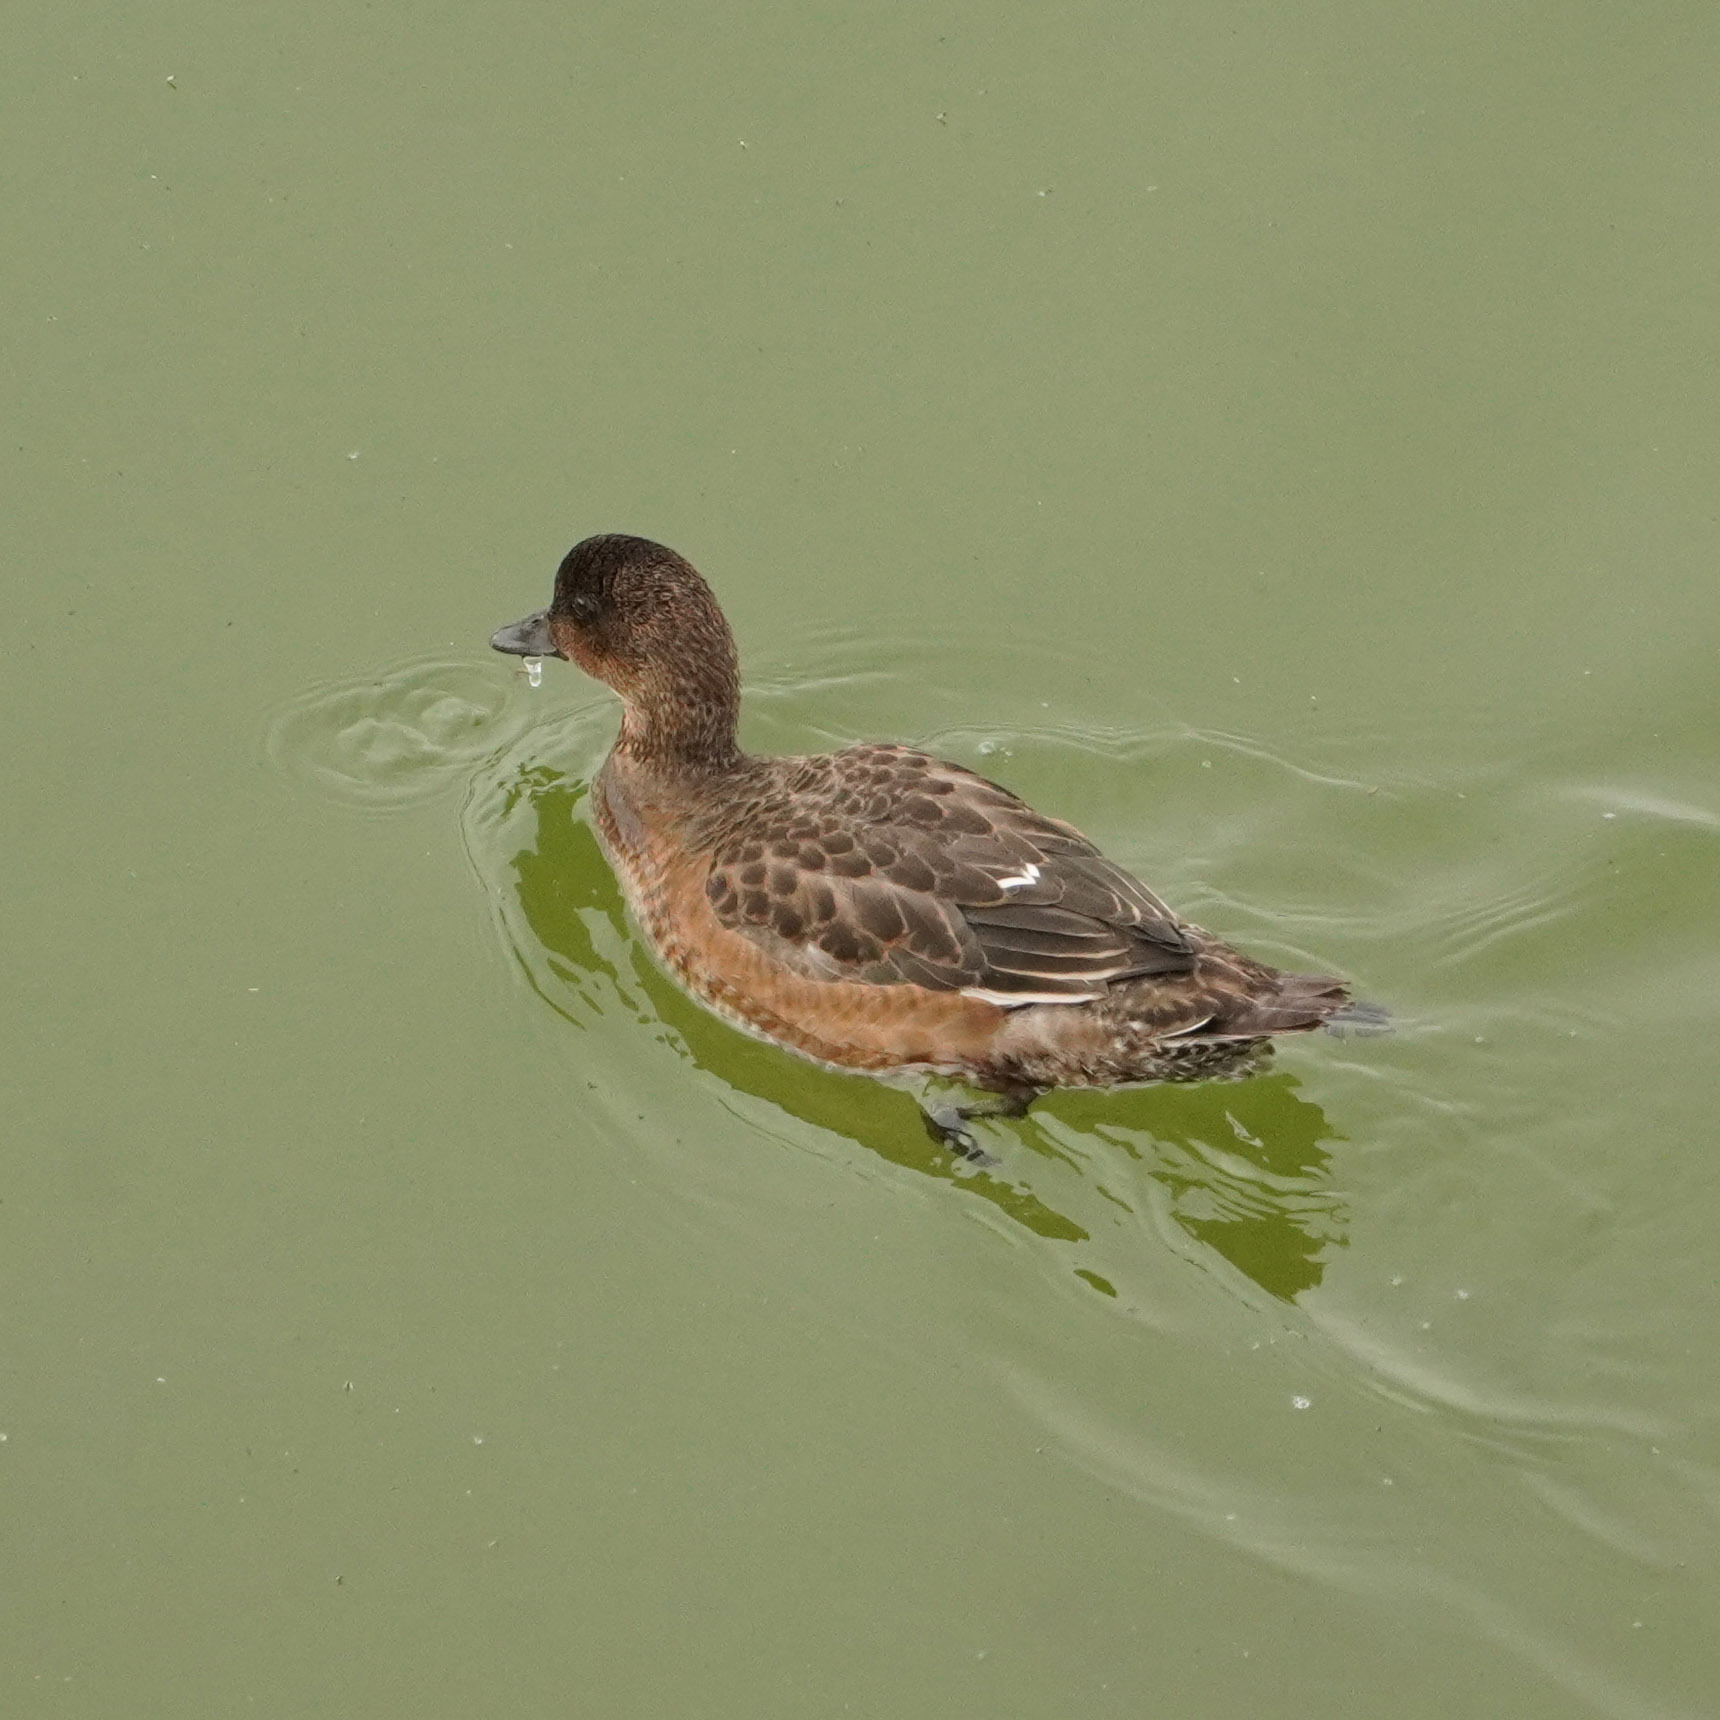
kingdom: Animalia
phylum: Chordata
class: Aves
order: Anseriformes
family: Anatidae
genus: Mareca
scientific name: Mareca penelope
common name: Eurasian wigeon
